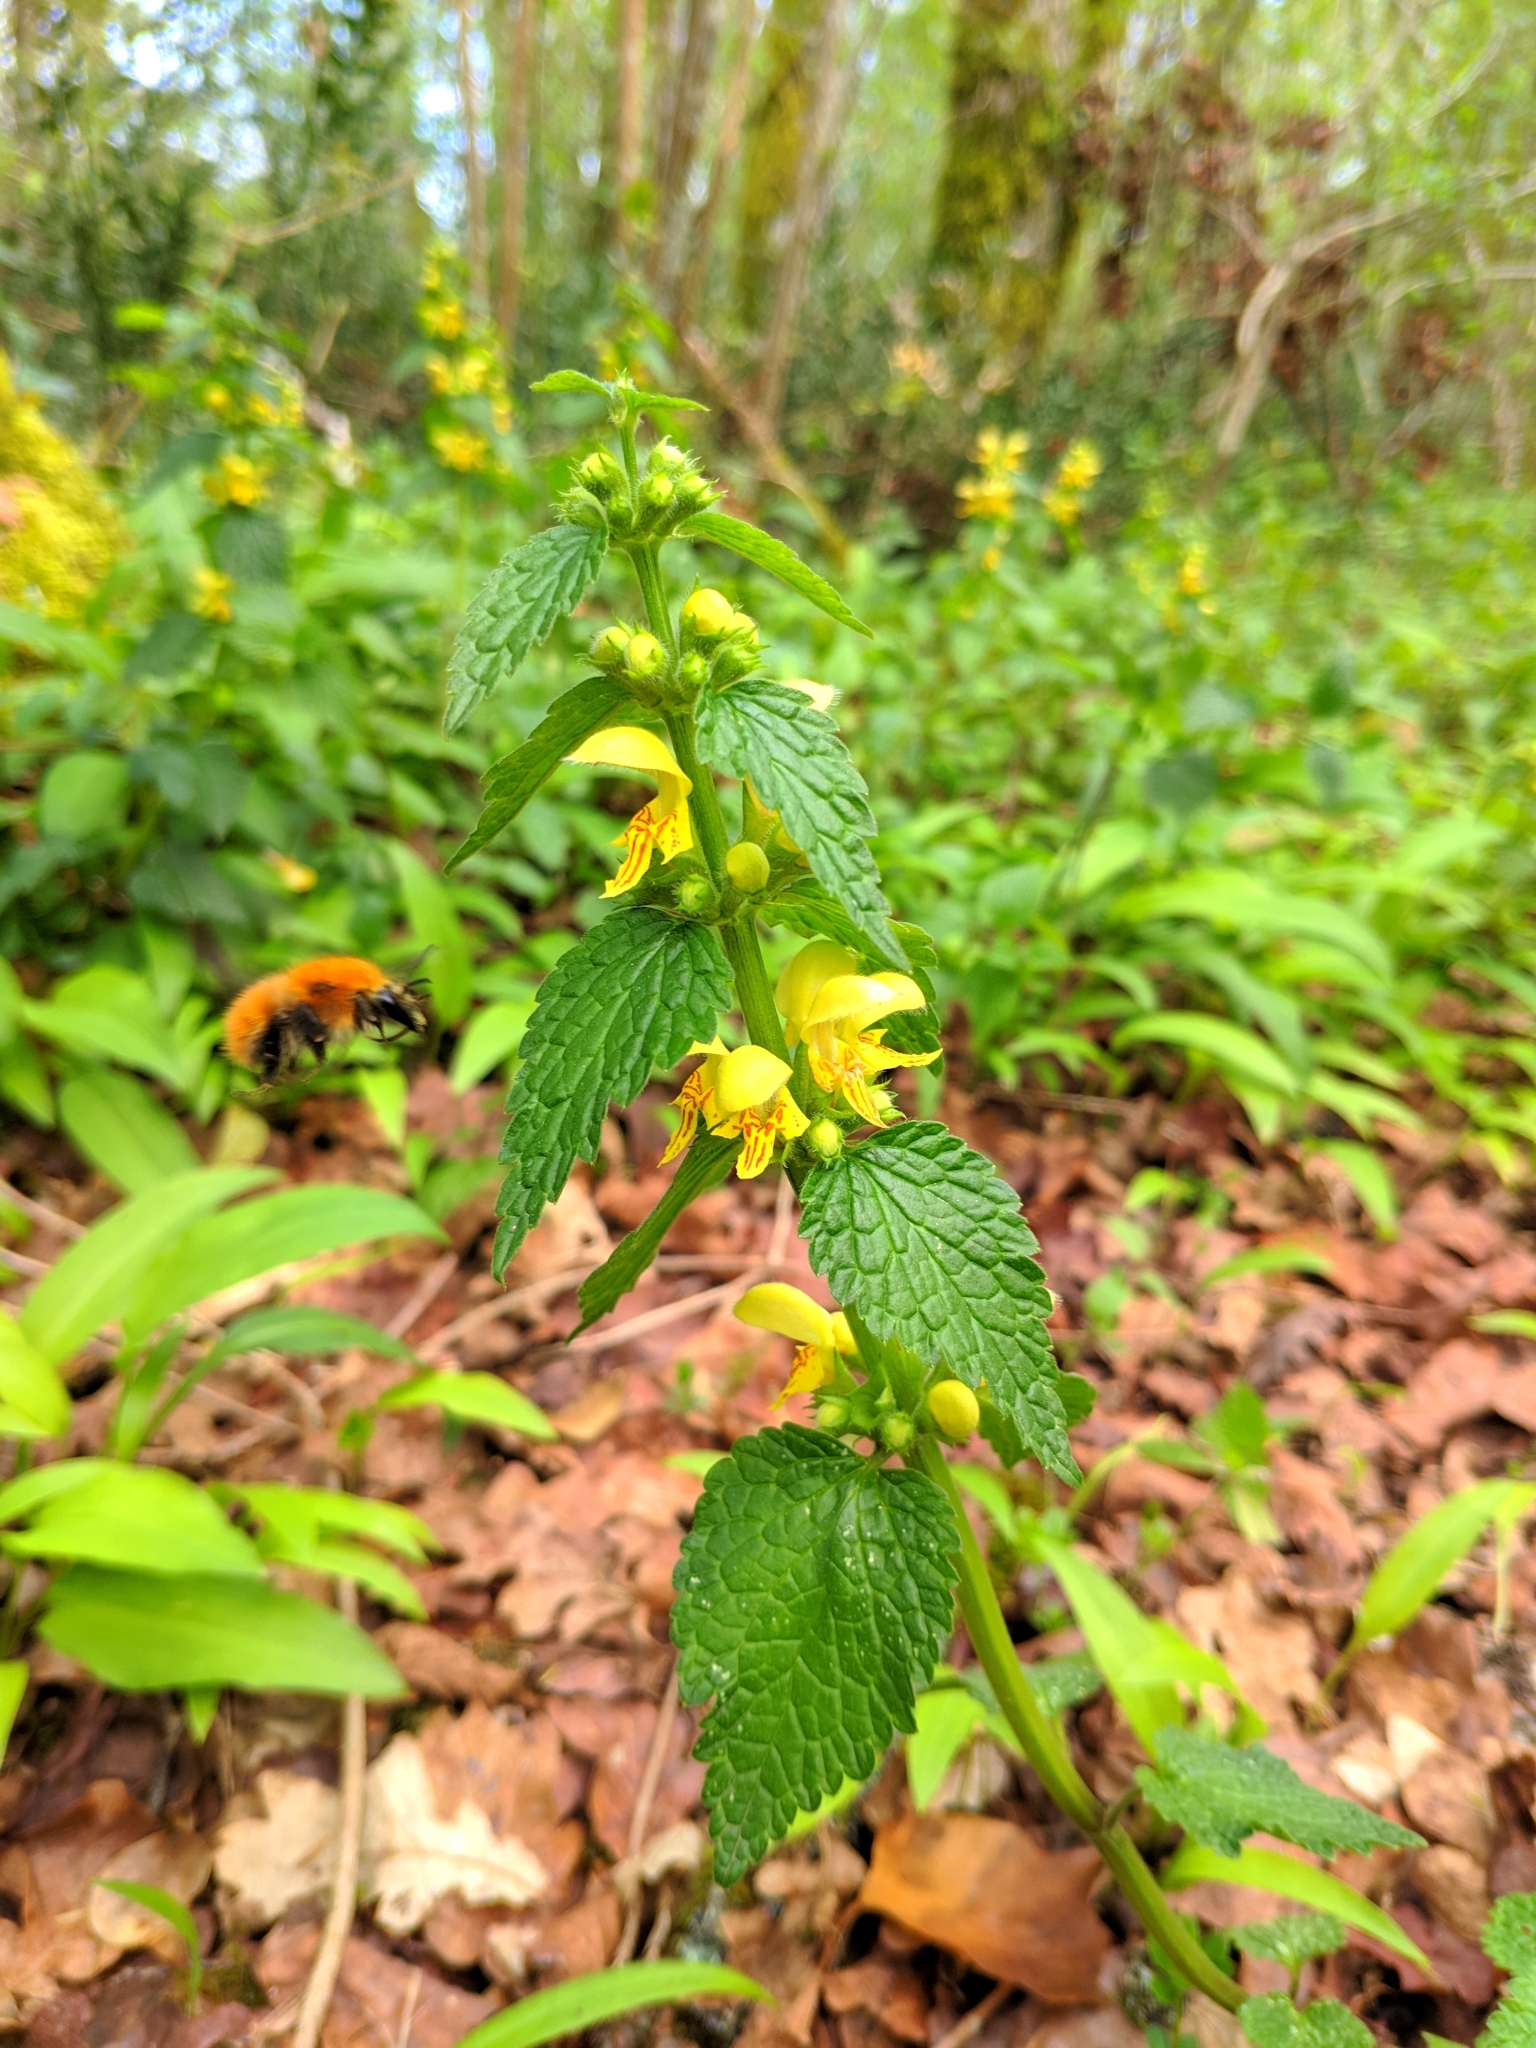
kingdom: Plantae
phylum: Tracheophyta
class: Magnoliopsida
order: Lamiales
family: Lamiaceae
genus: Lamium
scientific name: Lamium galeobdolon
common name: Yellow archangel
